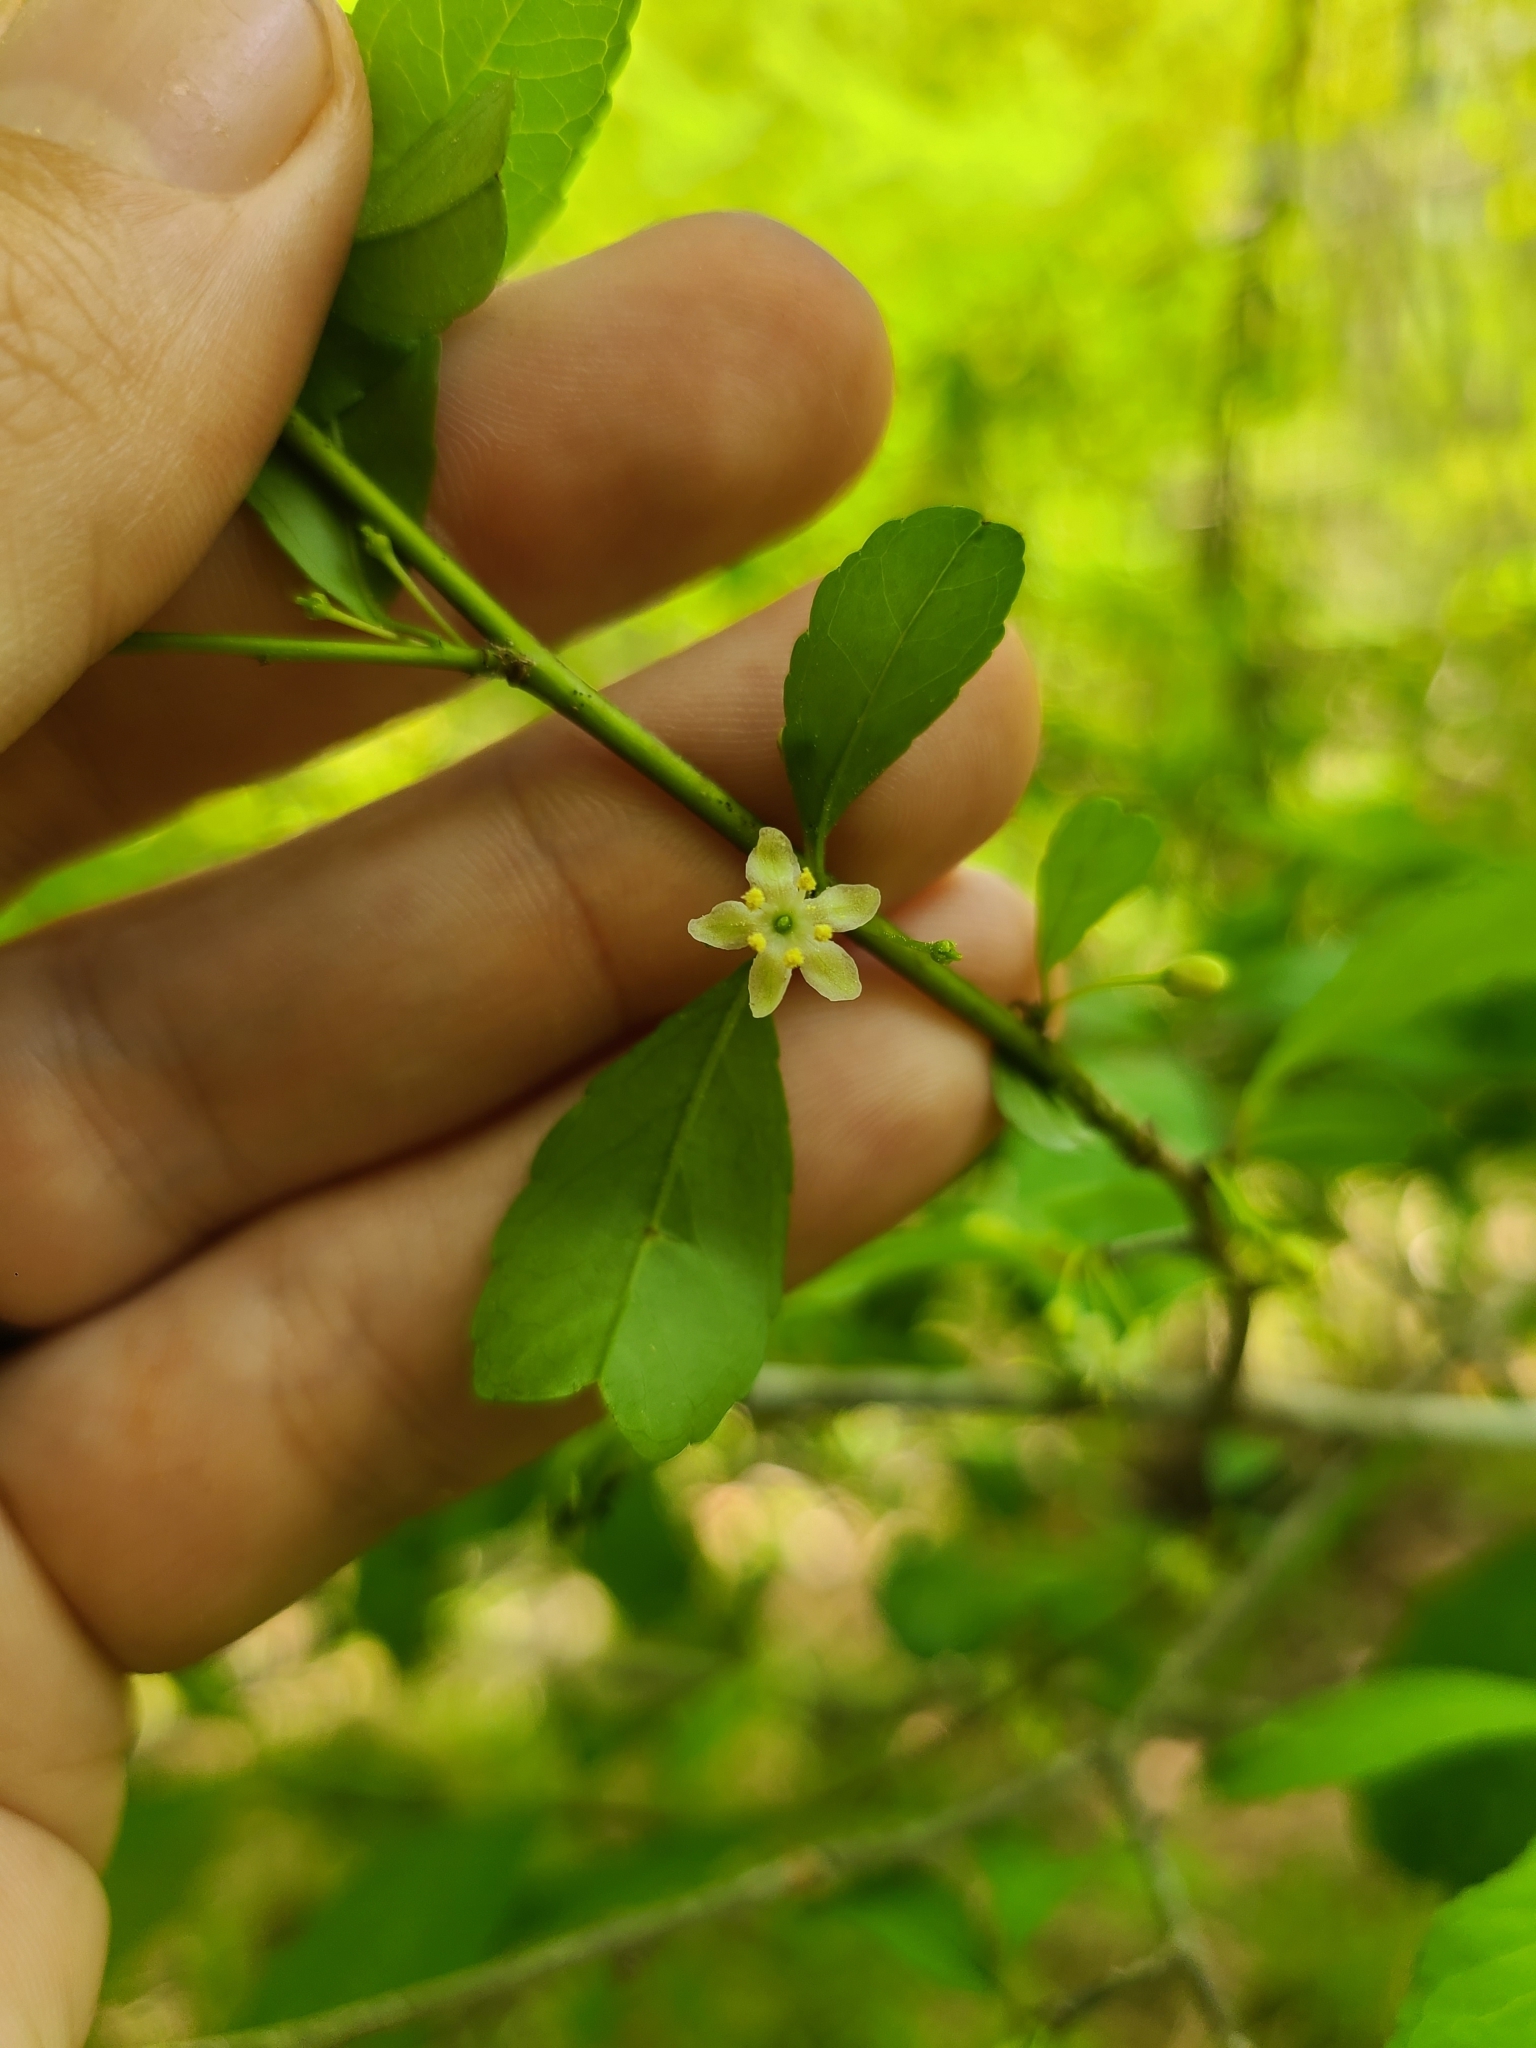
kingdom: Plantae
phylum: Tracheophyta
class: Magnoliopsida
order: Aquifoliales
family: Aquifoliaceae
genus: Ilex
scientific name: Ilex decidua
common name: Possum-haw
